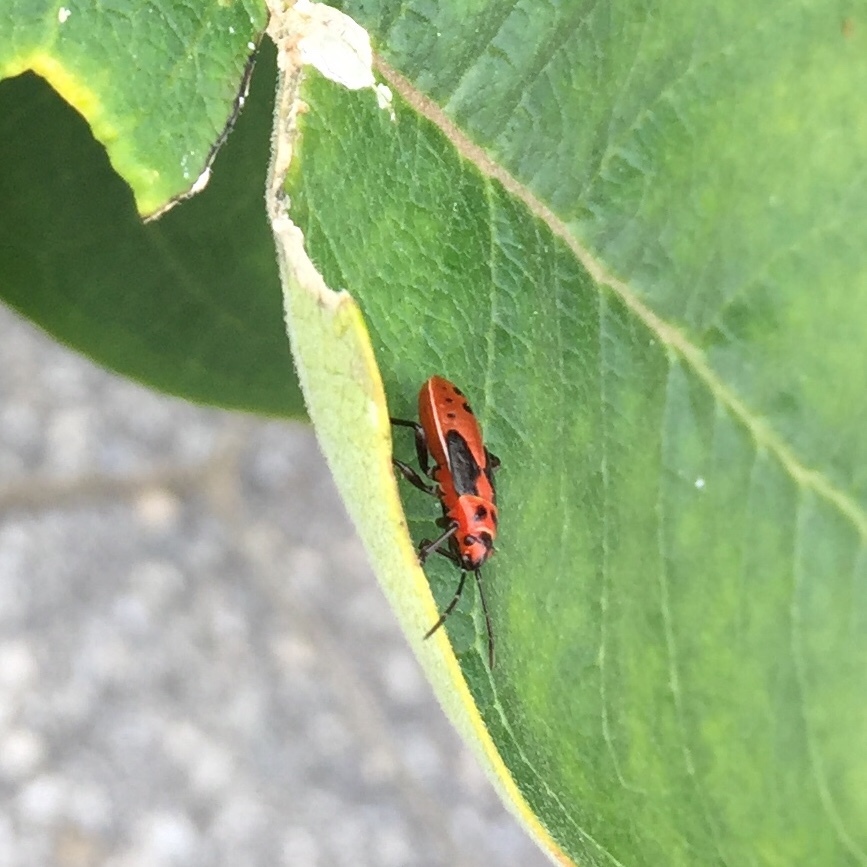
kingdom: Animalia
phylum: Arthropoda
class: Insecta
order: Hemiptera
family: Lygaeidae
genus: Lygaeus
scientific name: Lygaeus kalmii
